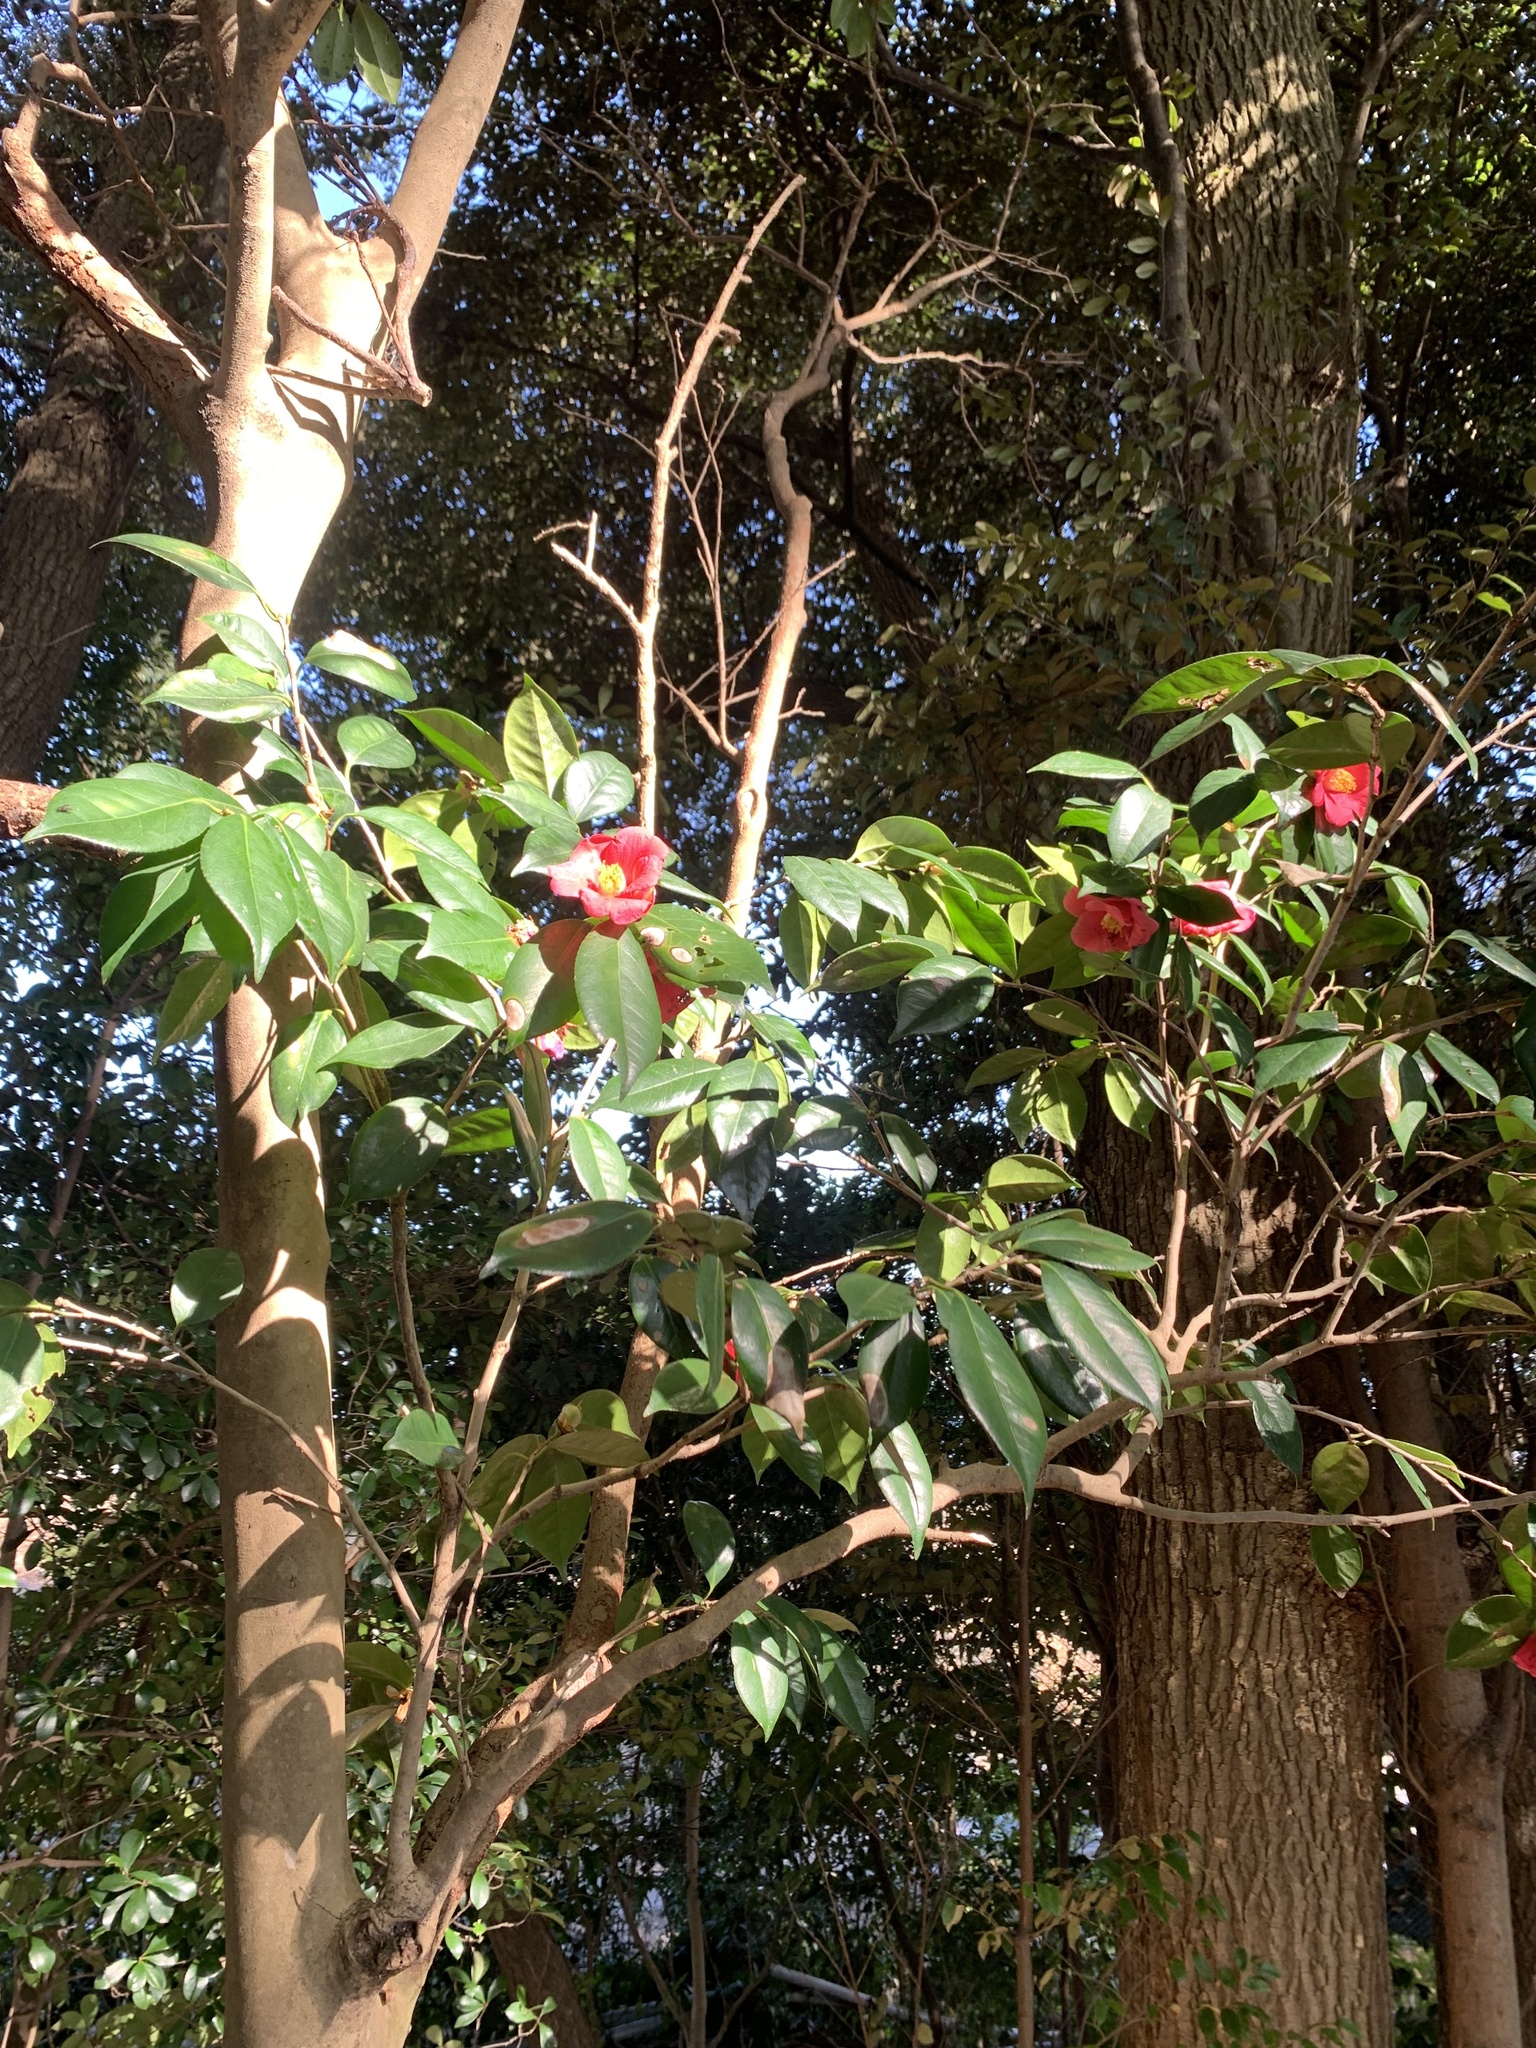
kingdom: Plantae
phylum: Tracheophyta
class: Magnoliopsida
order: Ericales
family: Theaceae
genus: Camellia
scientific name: Camellia japonica
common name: Camellia
